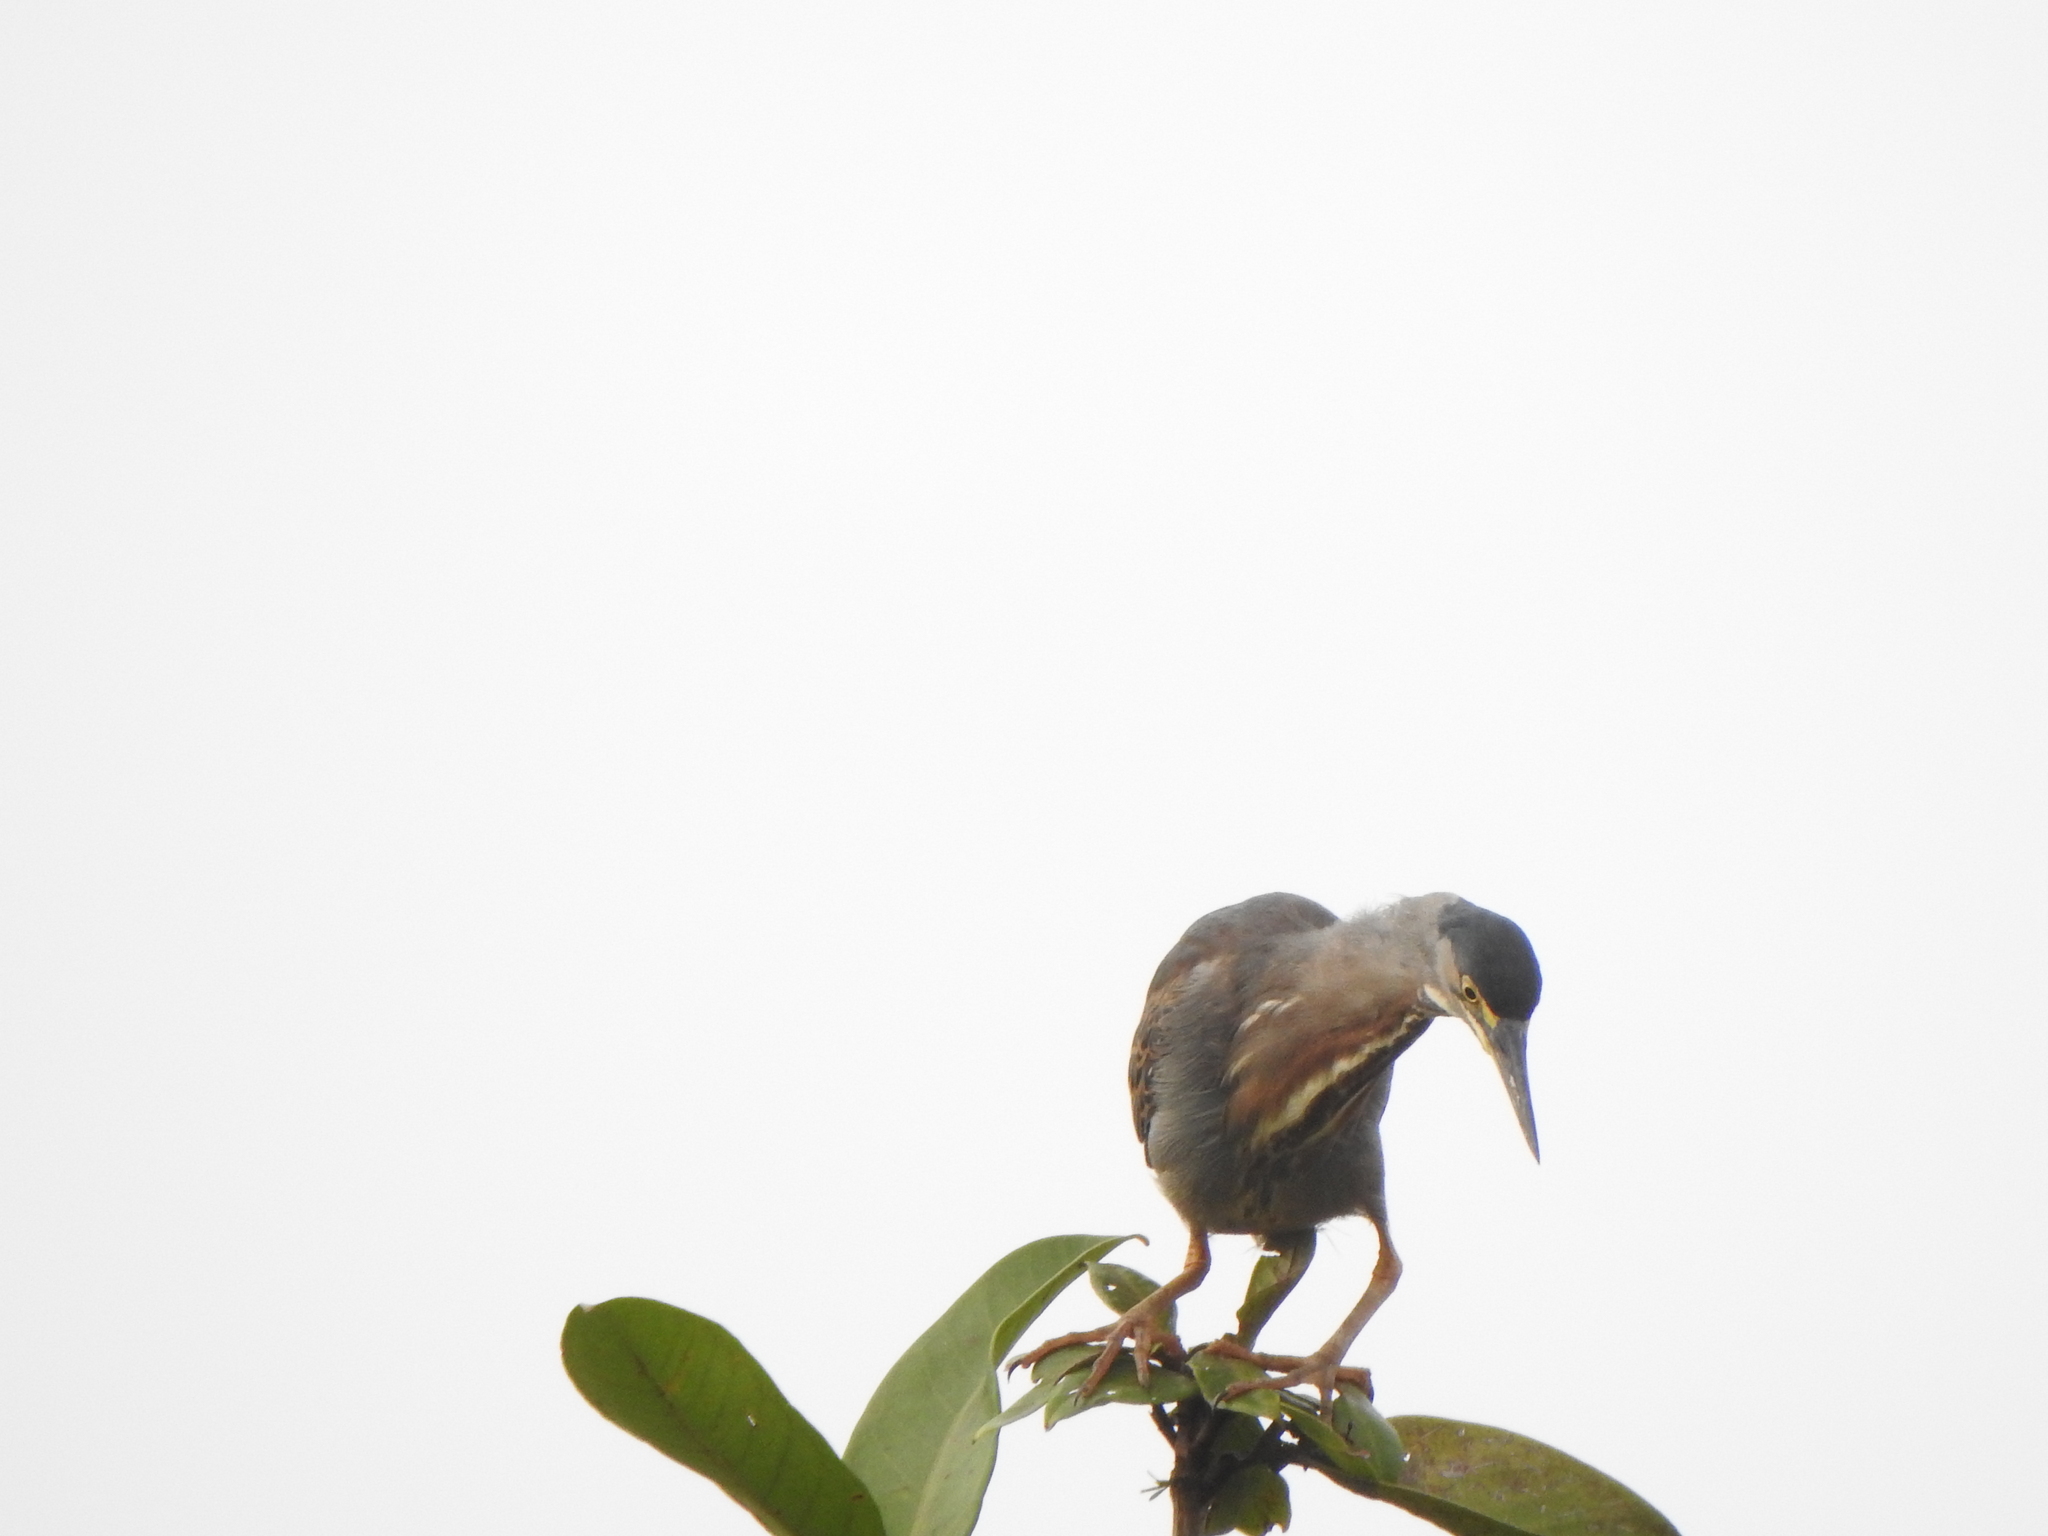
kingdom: Animalia
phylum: Chordata
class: Aves
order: Pelecaniformes
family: Ardeidae
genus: Butorides
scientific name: Butorides striata
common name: Striated heron
